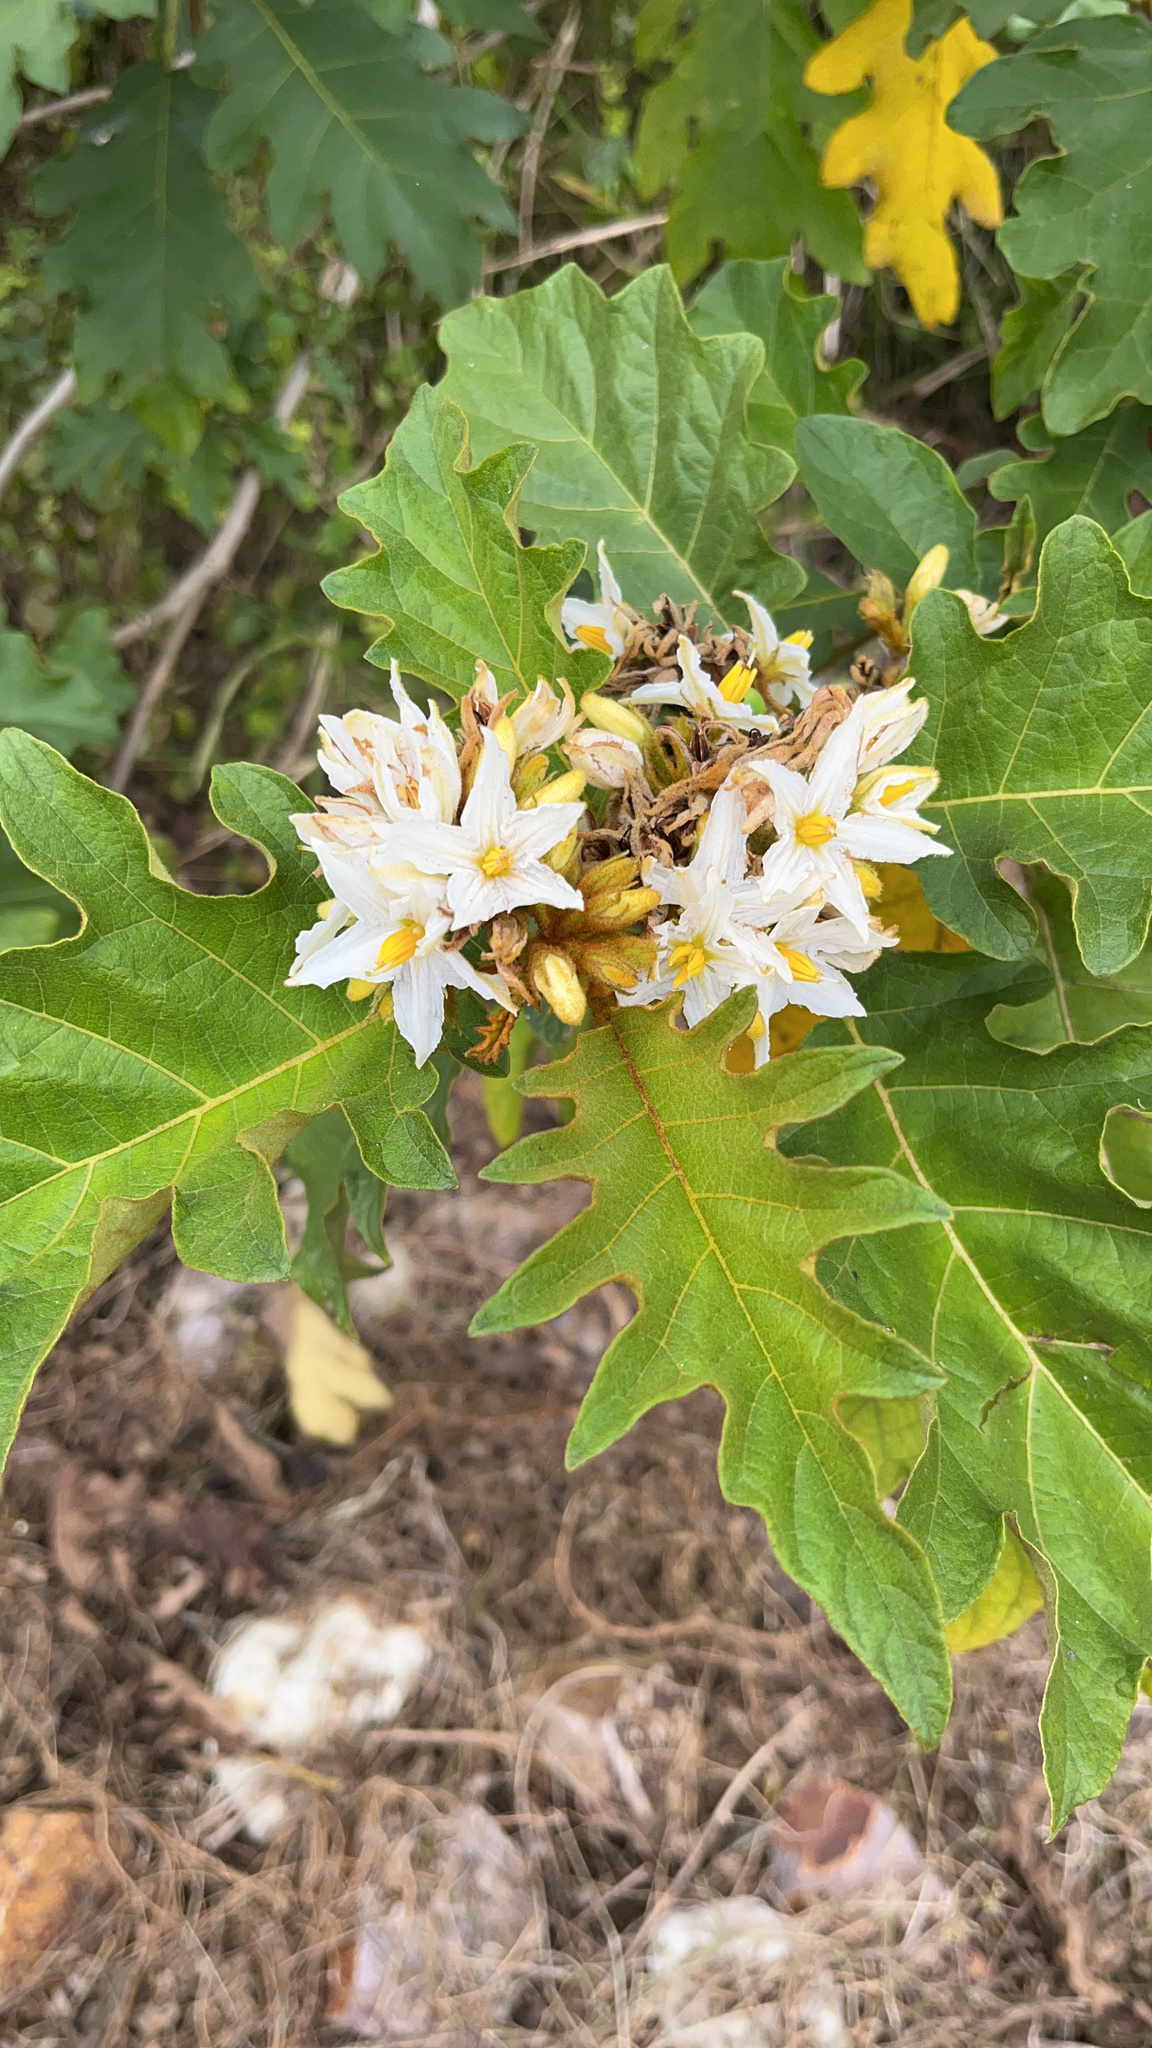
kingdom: Plantae
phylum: Tracheophyta
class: Magnoliopsida
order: Solanales
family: Solanaceae
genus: Solanum
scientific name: Solanum chrysotrichum
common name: Nightshade
